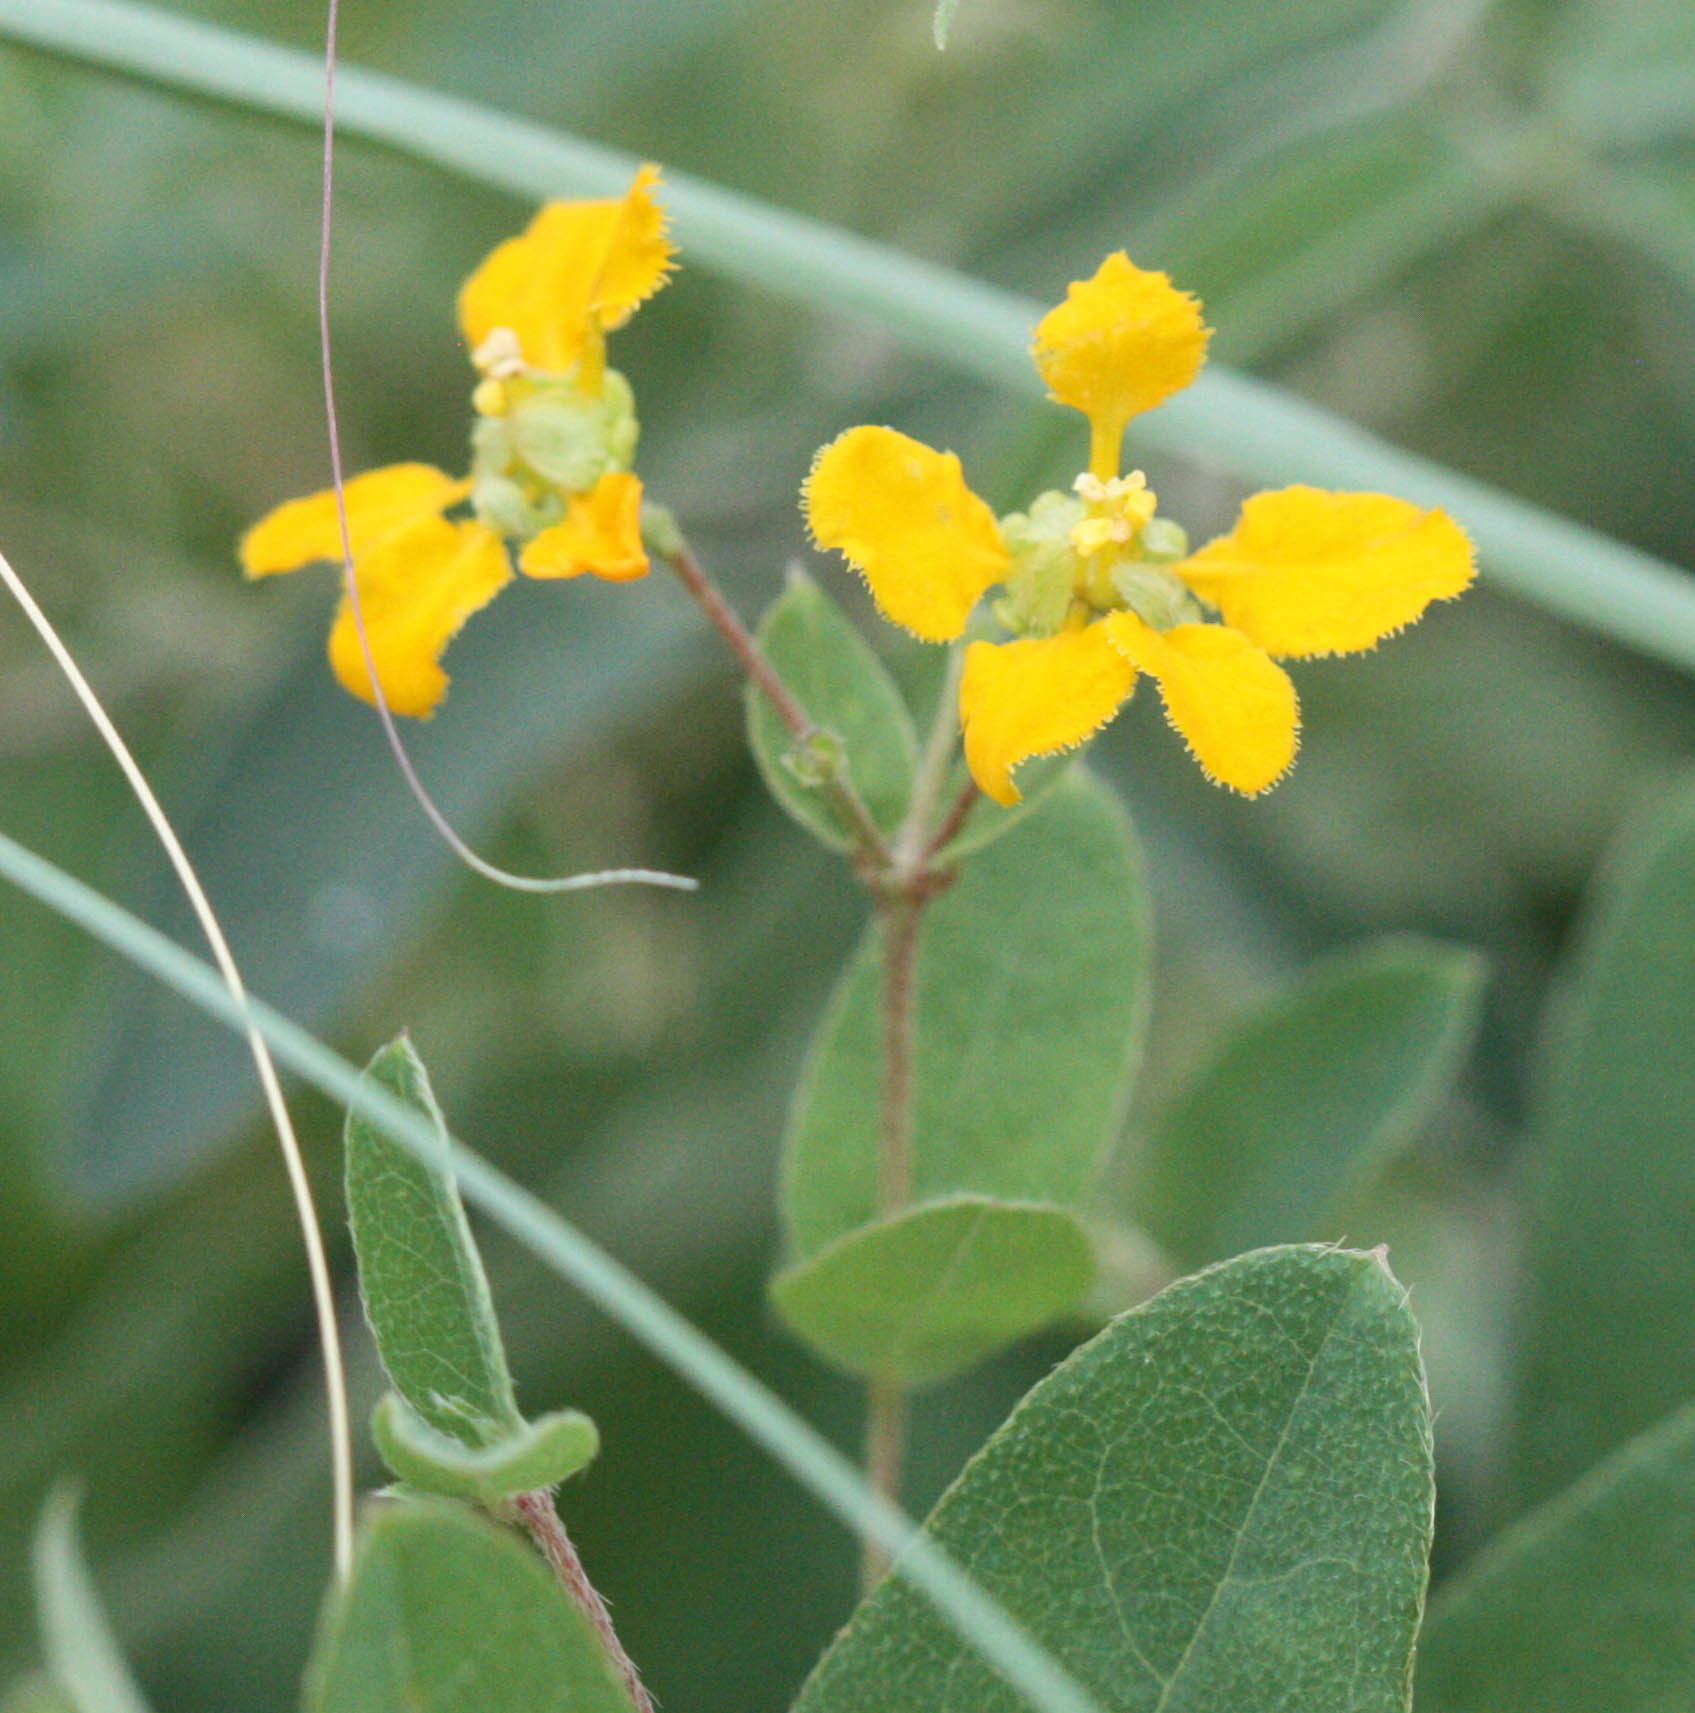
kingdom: Plantae
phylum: Tracheophyta
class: Magnoliopsida
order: Malpighiales
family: Malpighiaceae
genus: Aspicarpa
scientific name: Aspicarpa hirtella
